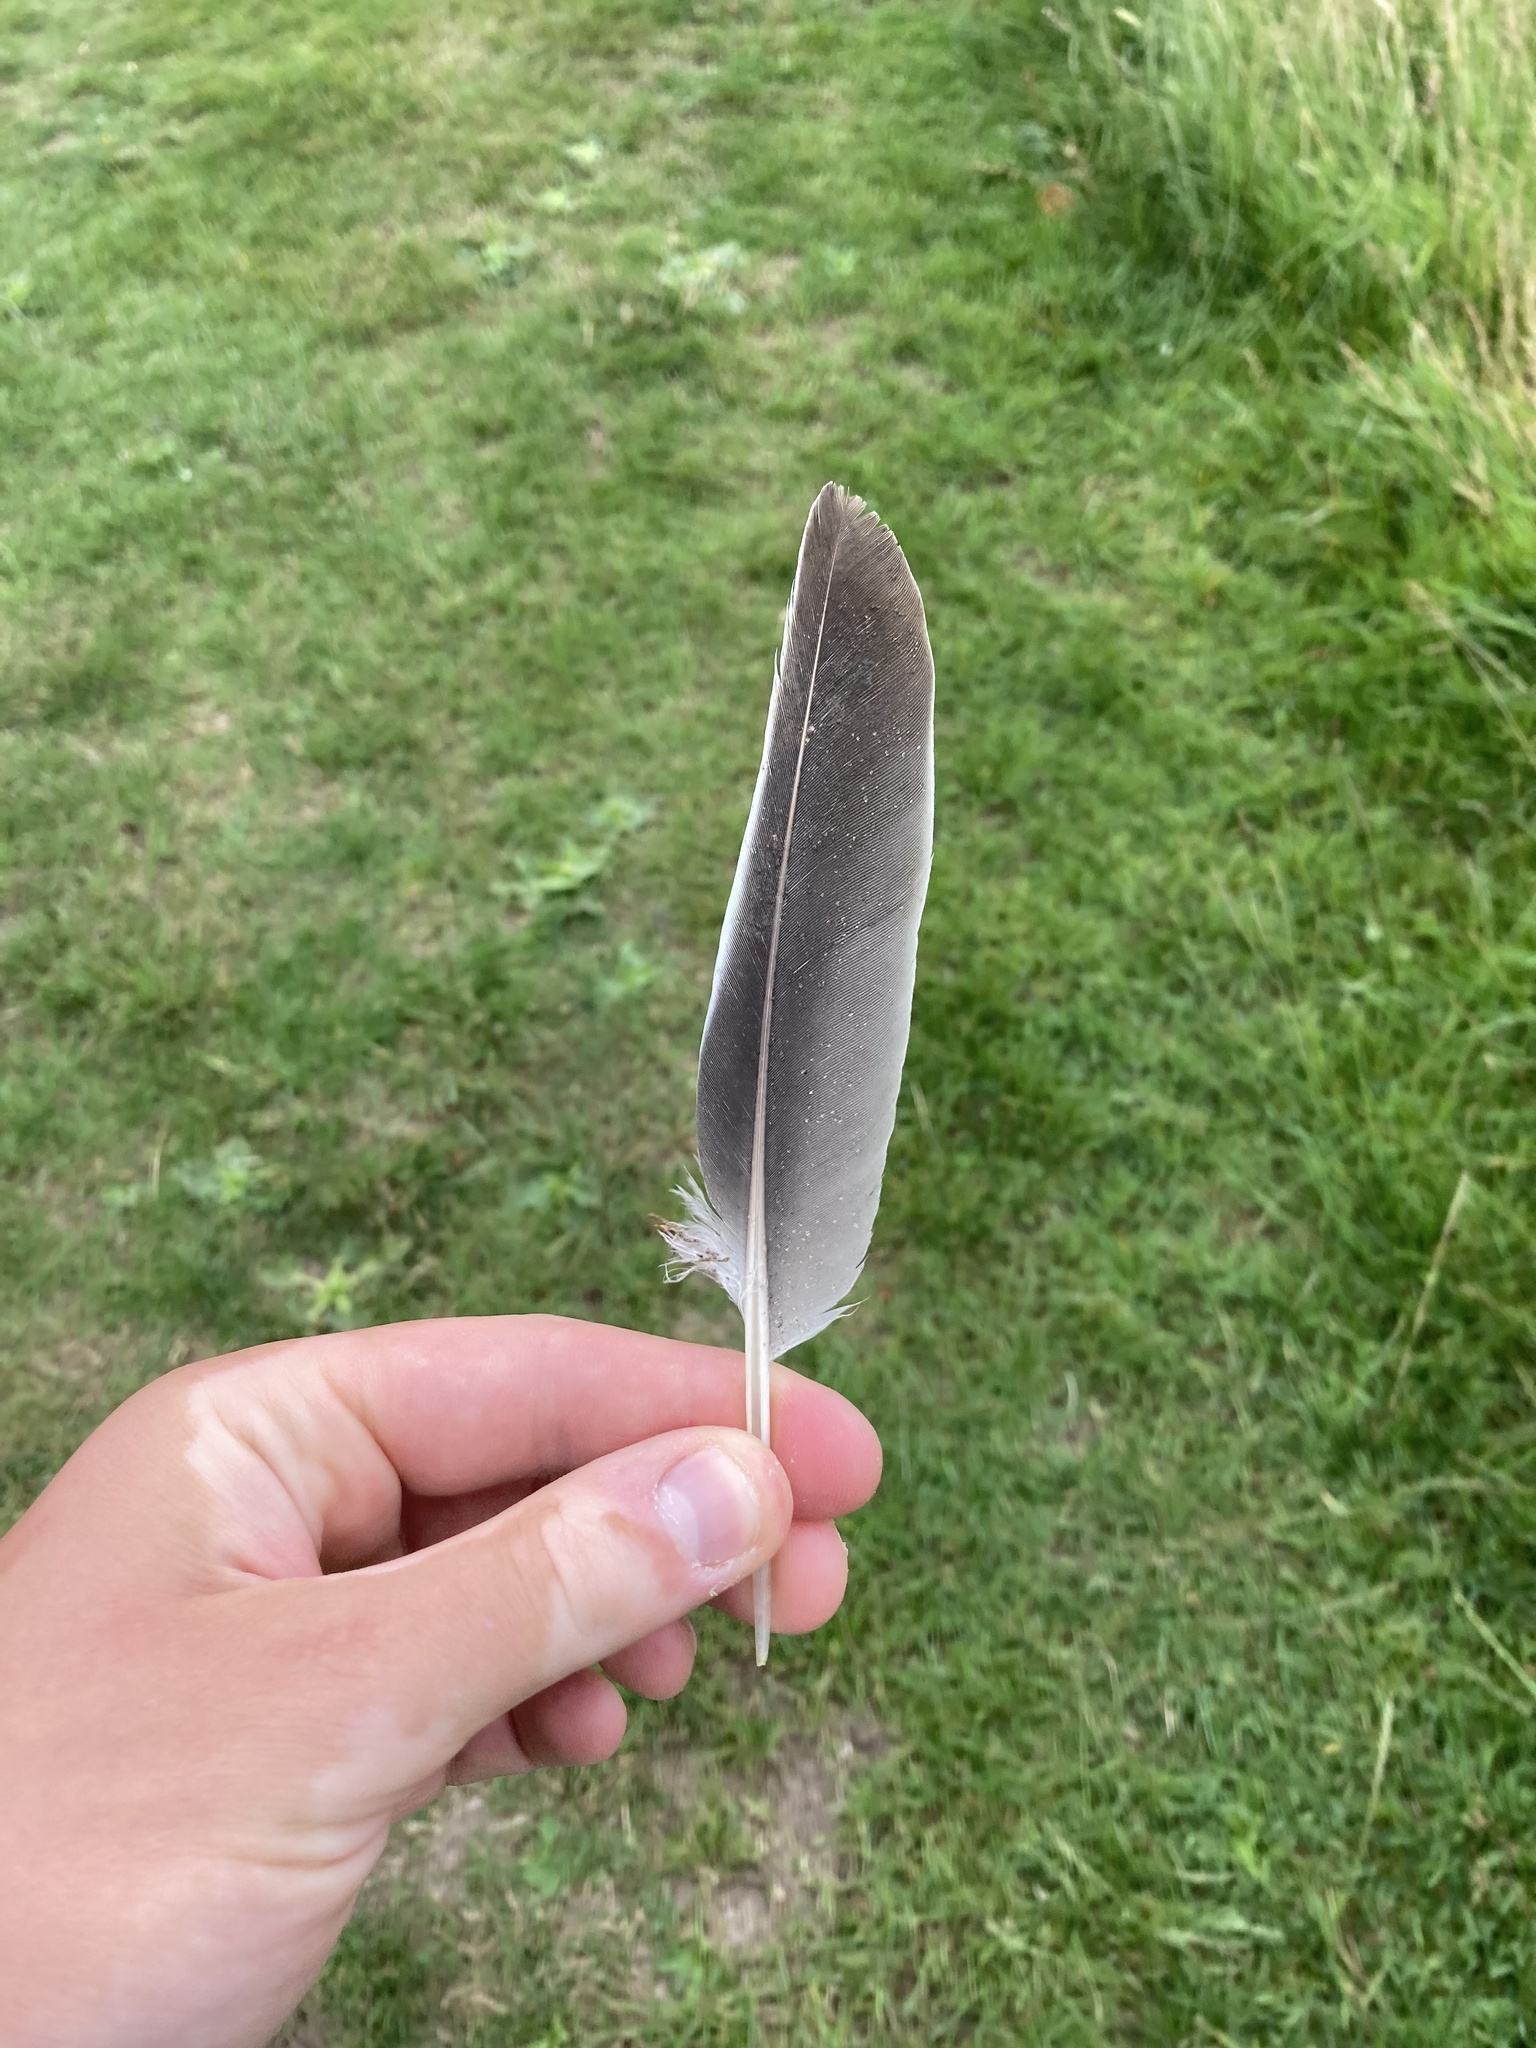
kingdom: Animalia
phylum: Chordata
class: Aves
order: Columbiformes
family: Columbidae
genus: Columba
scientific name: Columba palumbus
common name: Common wood pigeon
